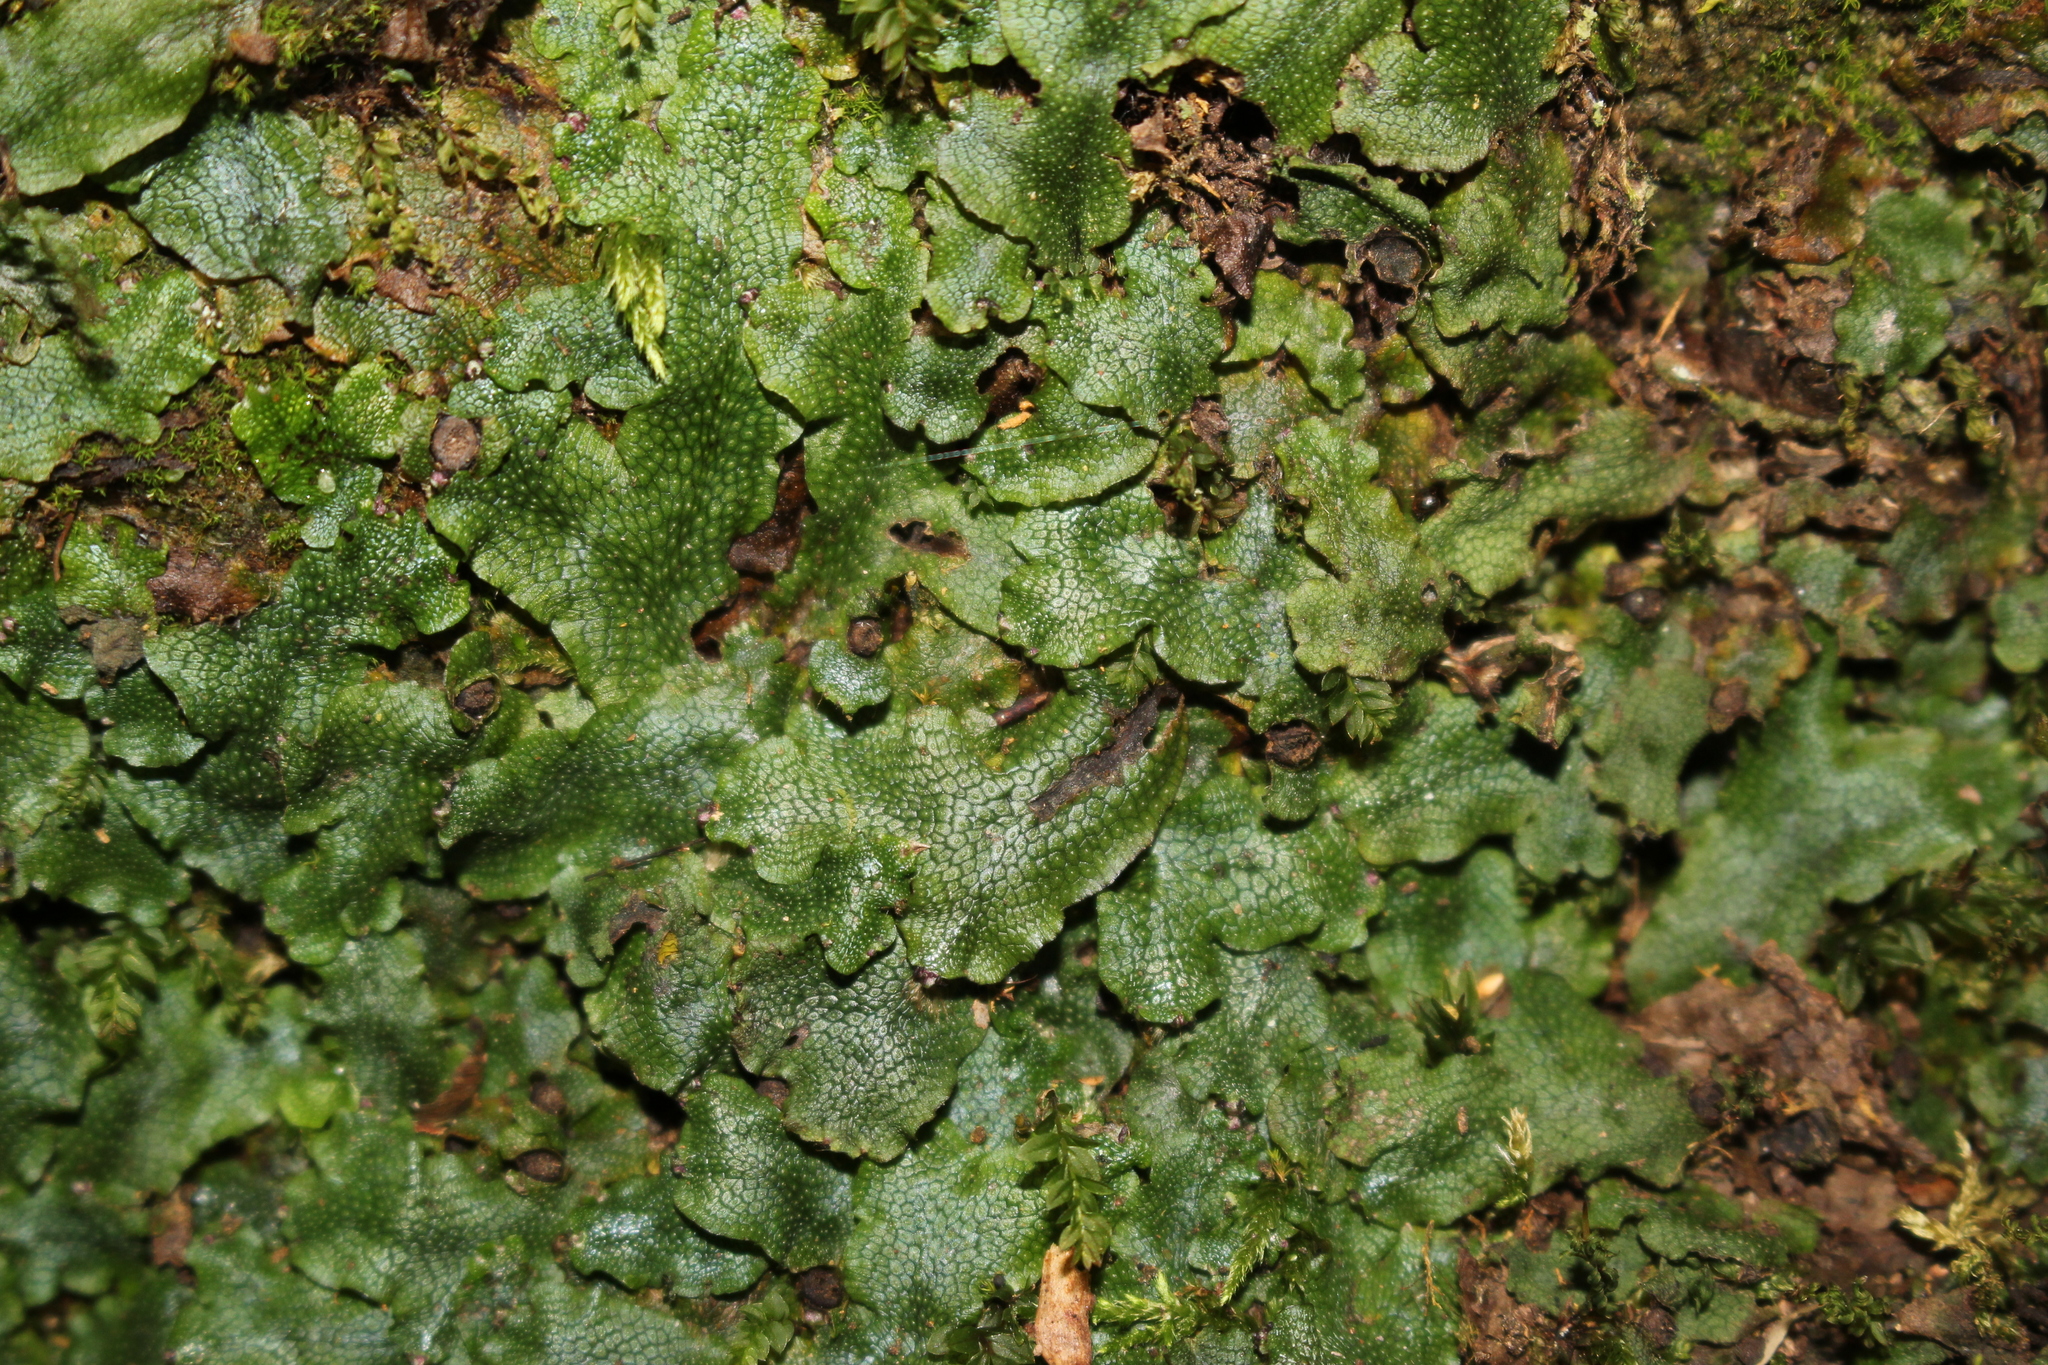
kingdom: Plantae
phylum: Marchantiophyta
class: Marchantiopsida
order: Marchantiales
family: Conocephalaceae
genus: Conocephalum
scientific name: Conocephalum salebrosum
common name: Cat-tongue liverwort
